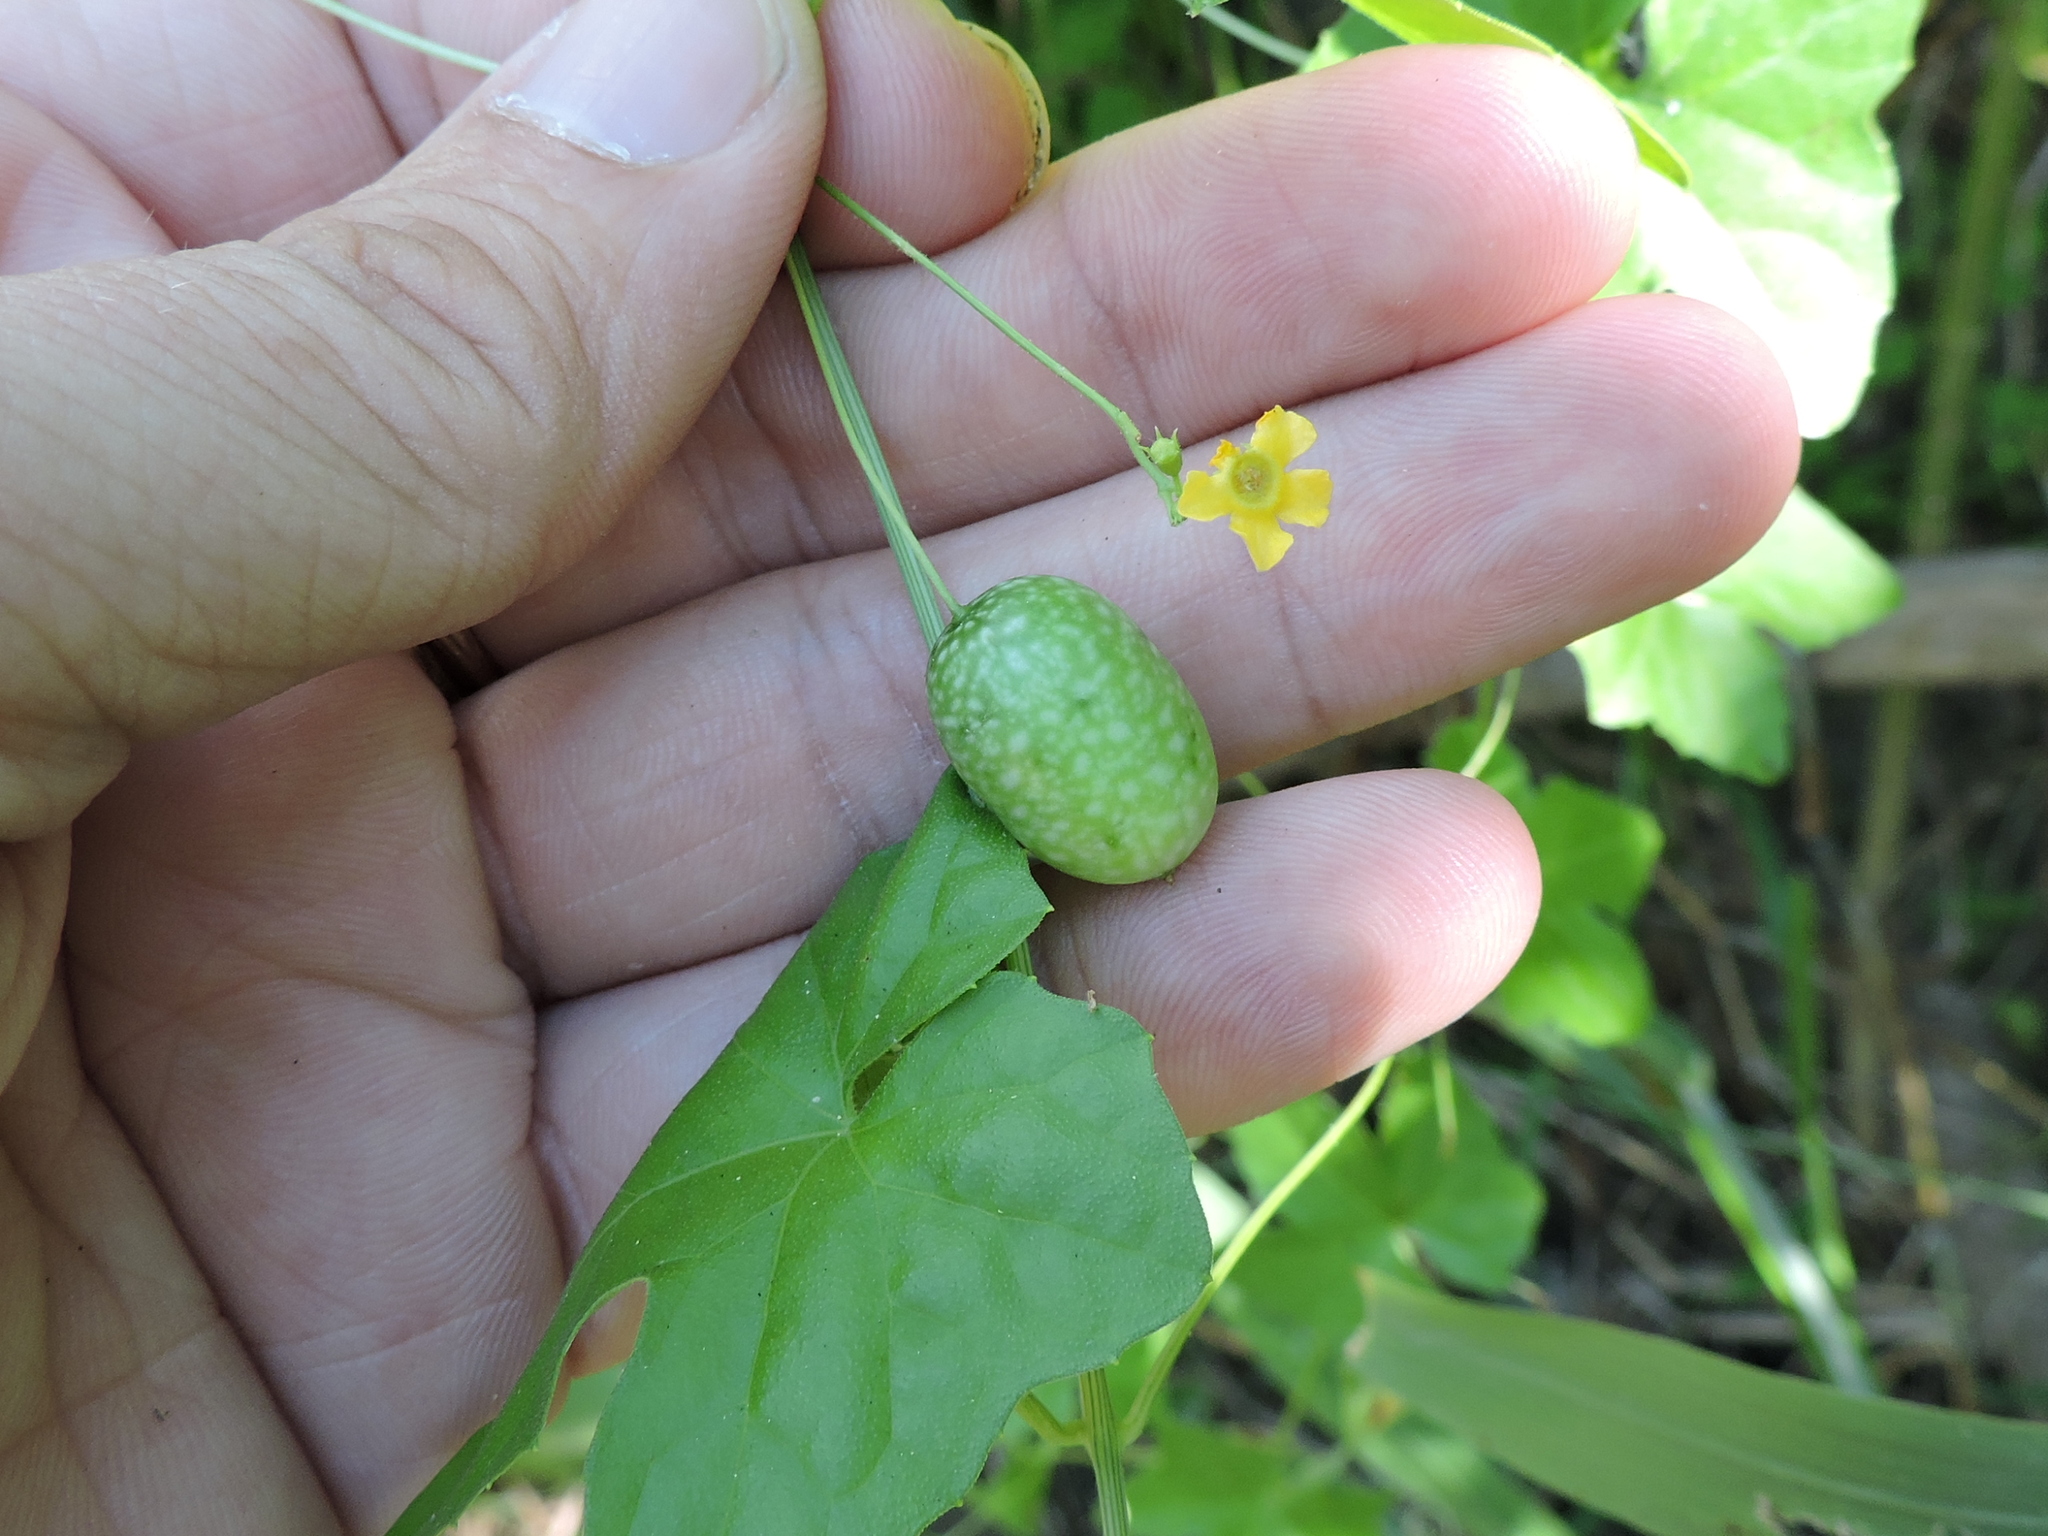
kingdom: Plantae
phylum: Tracheophyta
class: Magnoliopsida
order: Cucurbitales
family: Cucurbitaceae
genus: Melothria
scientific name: Melothria pendula
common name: Creeping-cucumber
